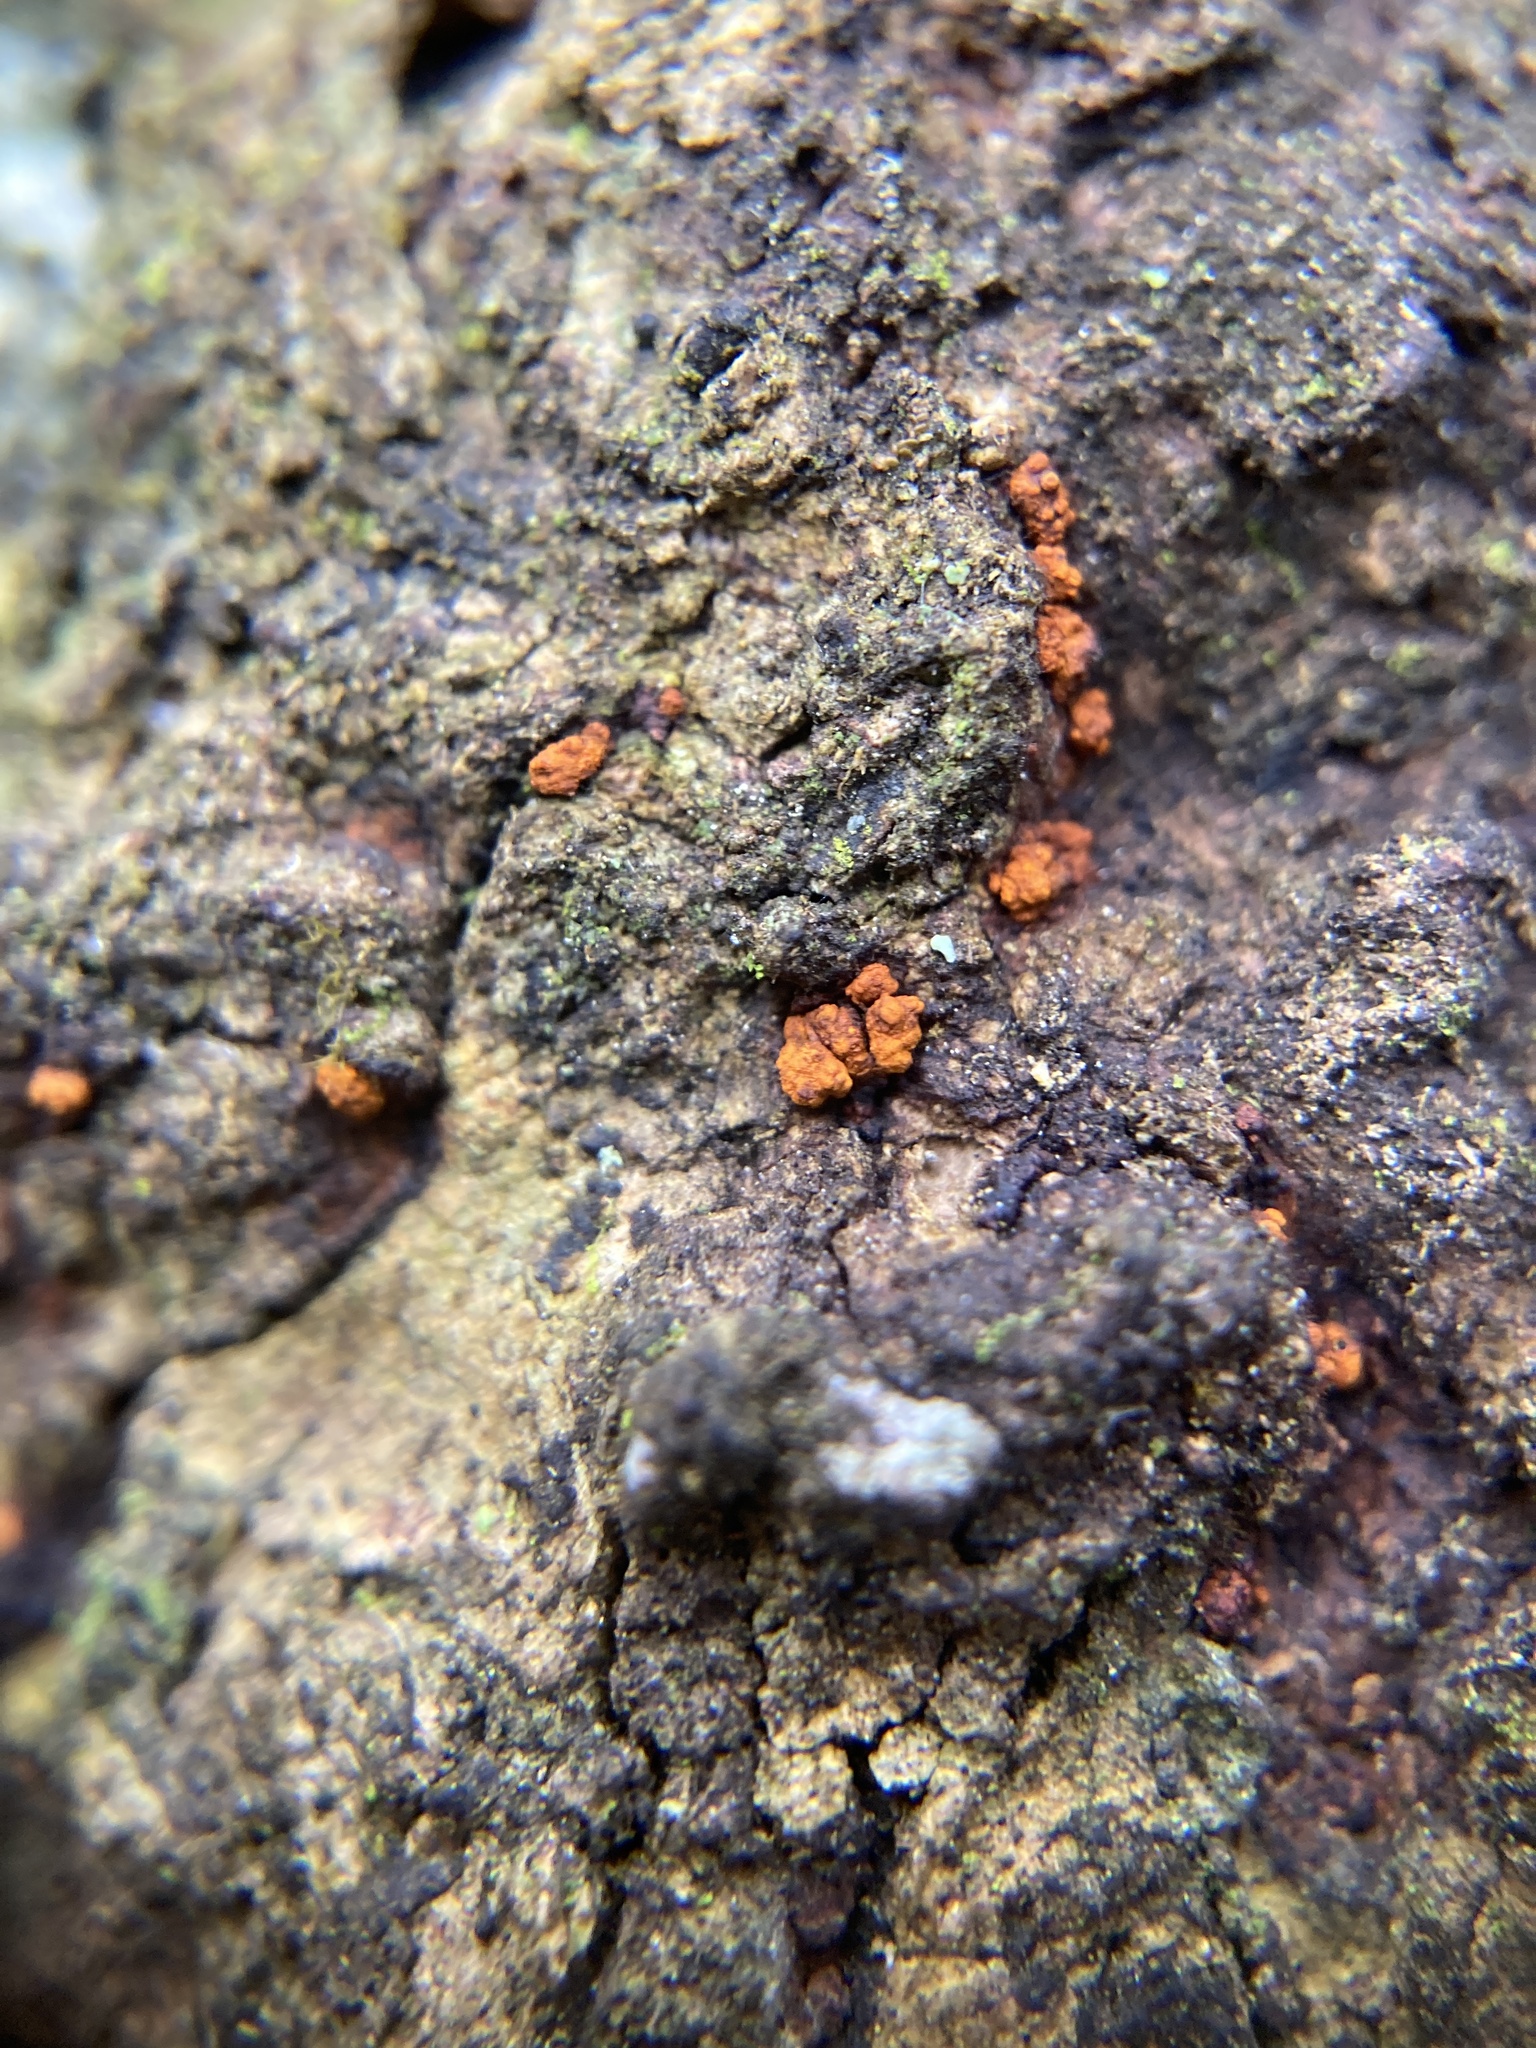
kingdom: Fungi
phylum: Ascomycota
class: Sordariomycetes
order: Diaporthales
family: Cryphonectriaceae
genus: Amphilogia
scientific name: Amphilogia gyrosa
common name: Orange hobnail canker
